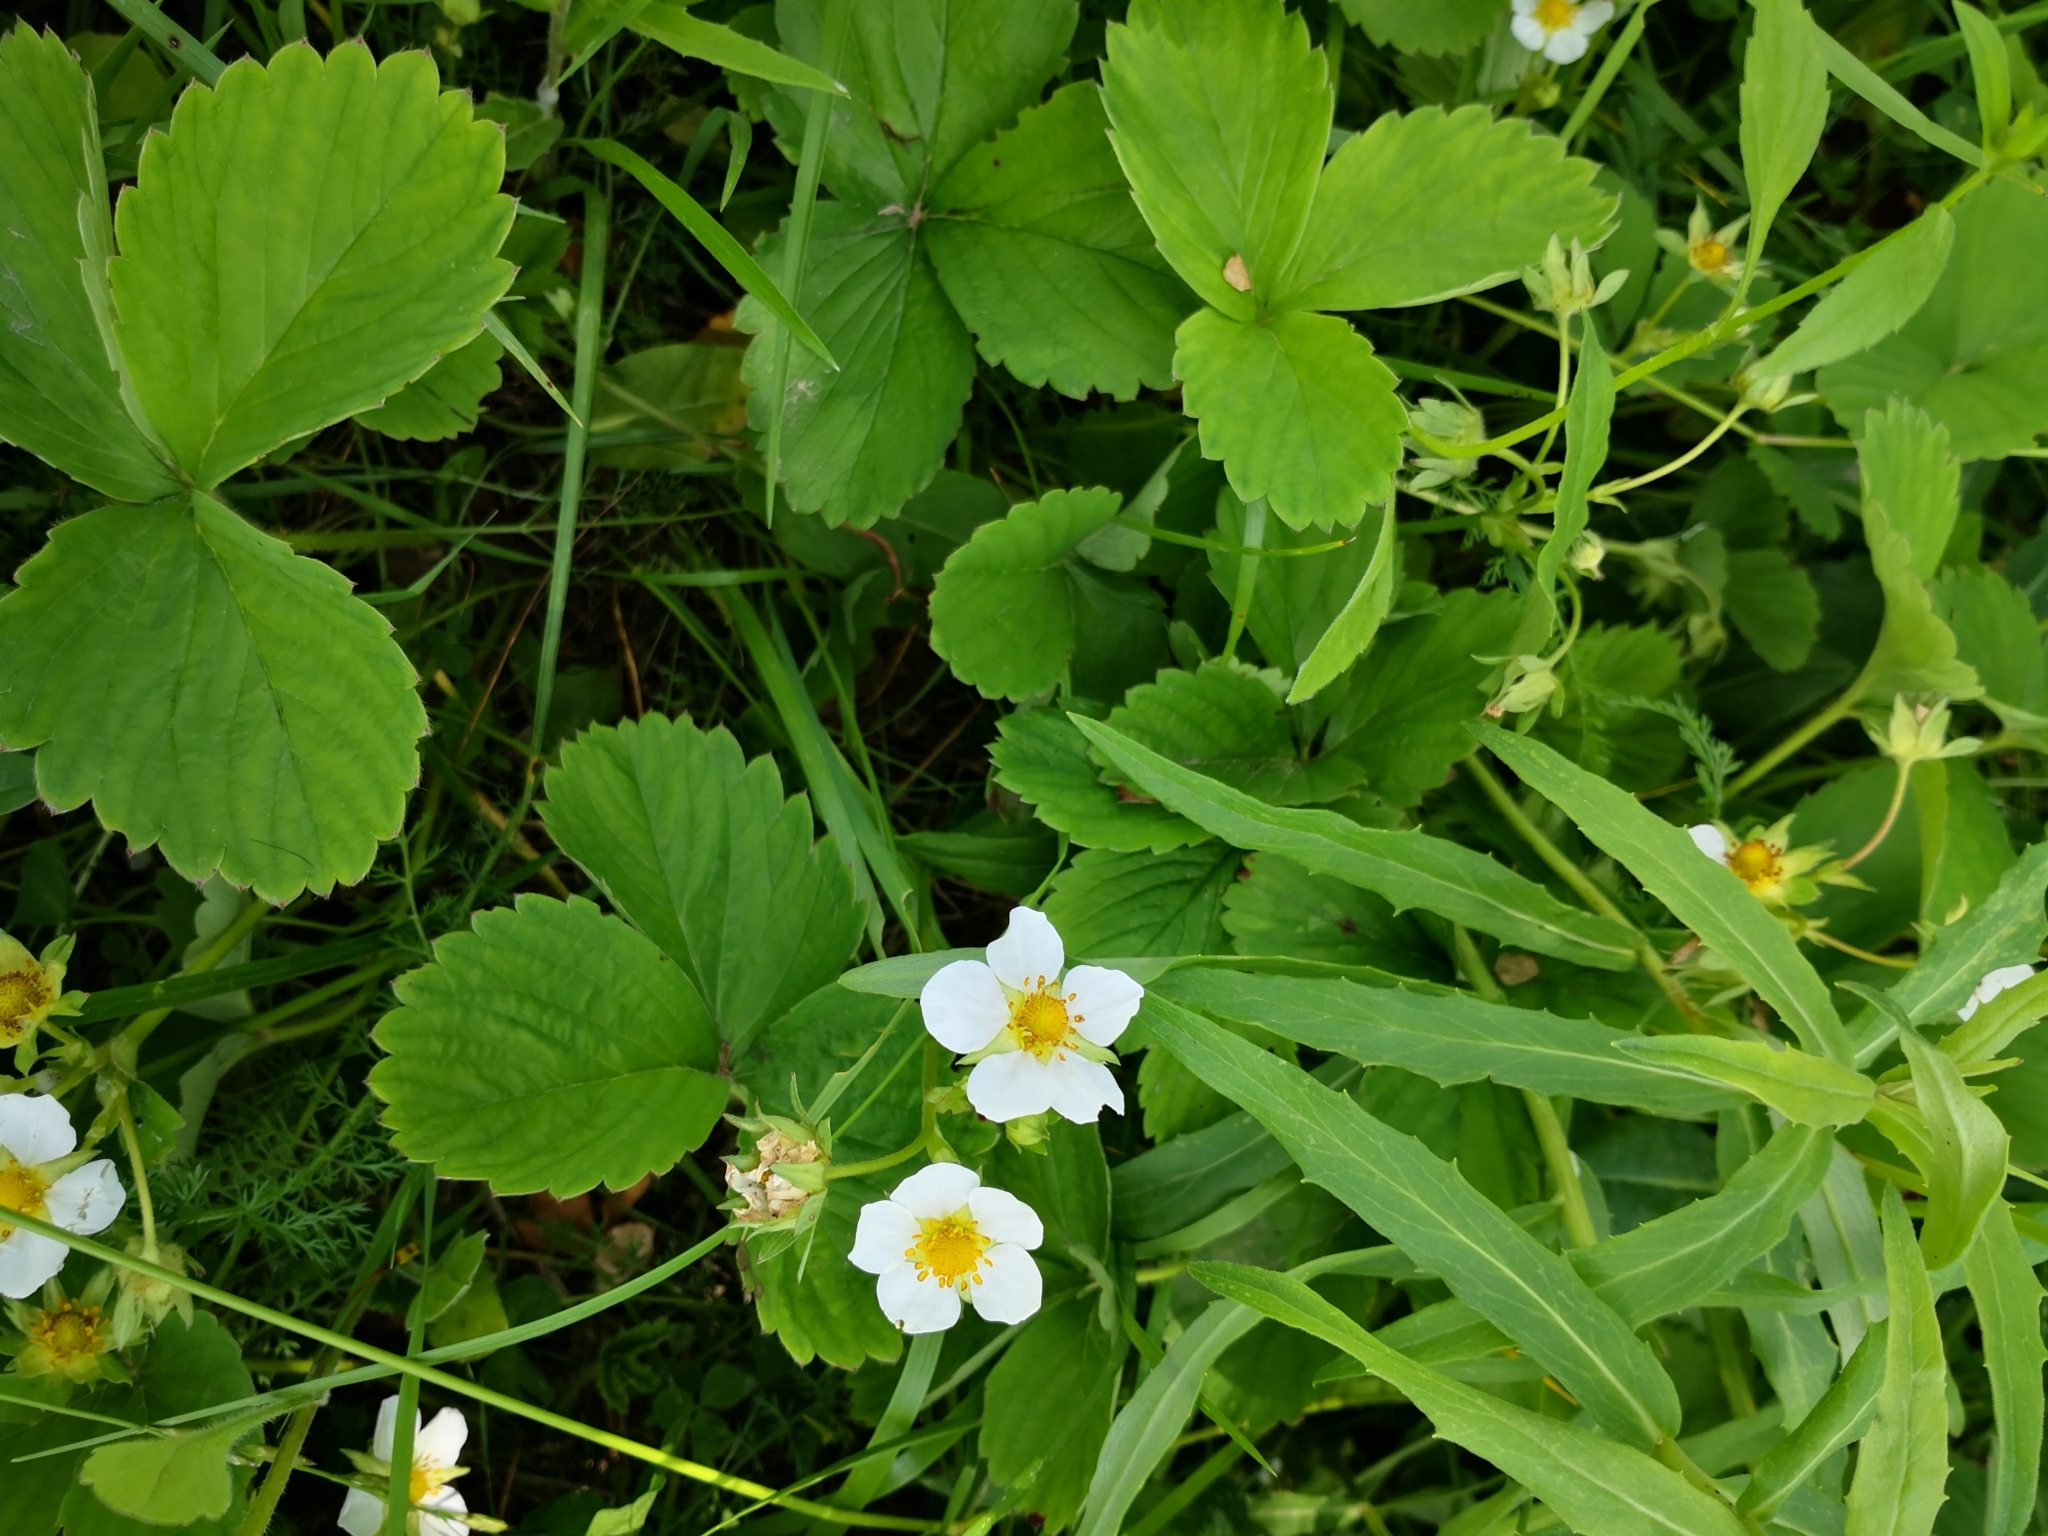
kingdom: Plantae
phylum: Tracheophyta
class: Magnoliopsida
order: Rosales
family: Rosaceae
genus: Fragaria
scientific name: Fragaria ananassa
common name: Garden strawberry
